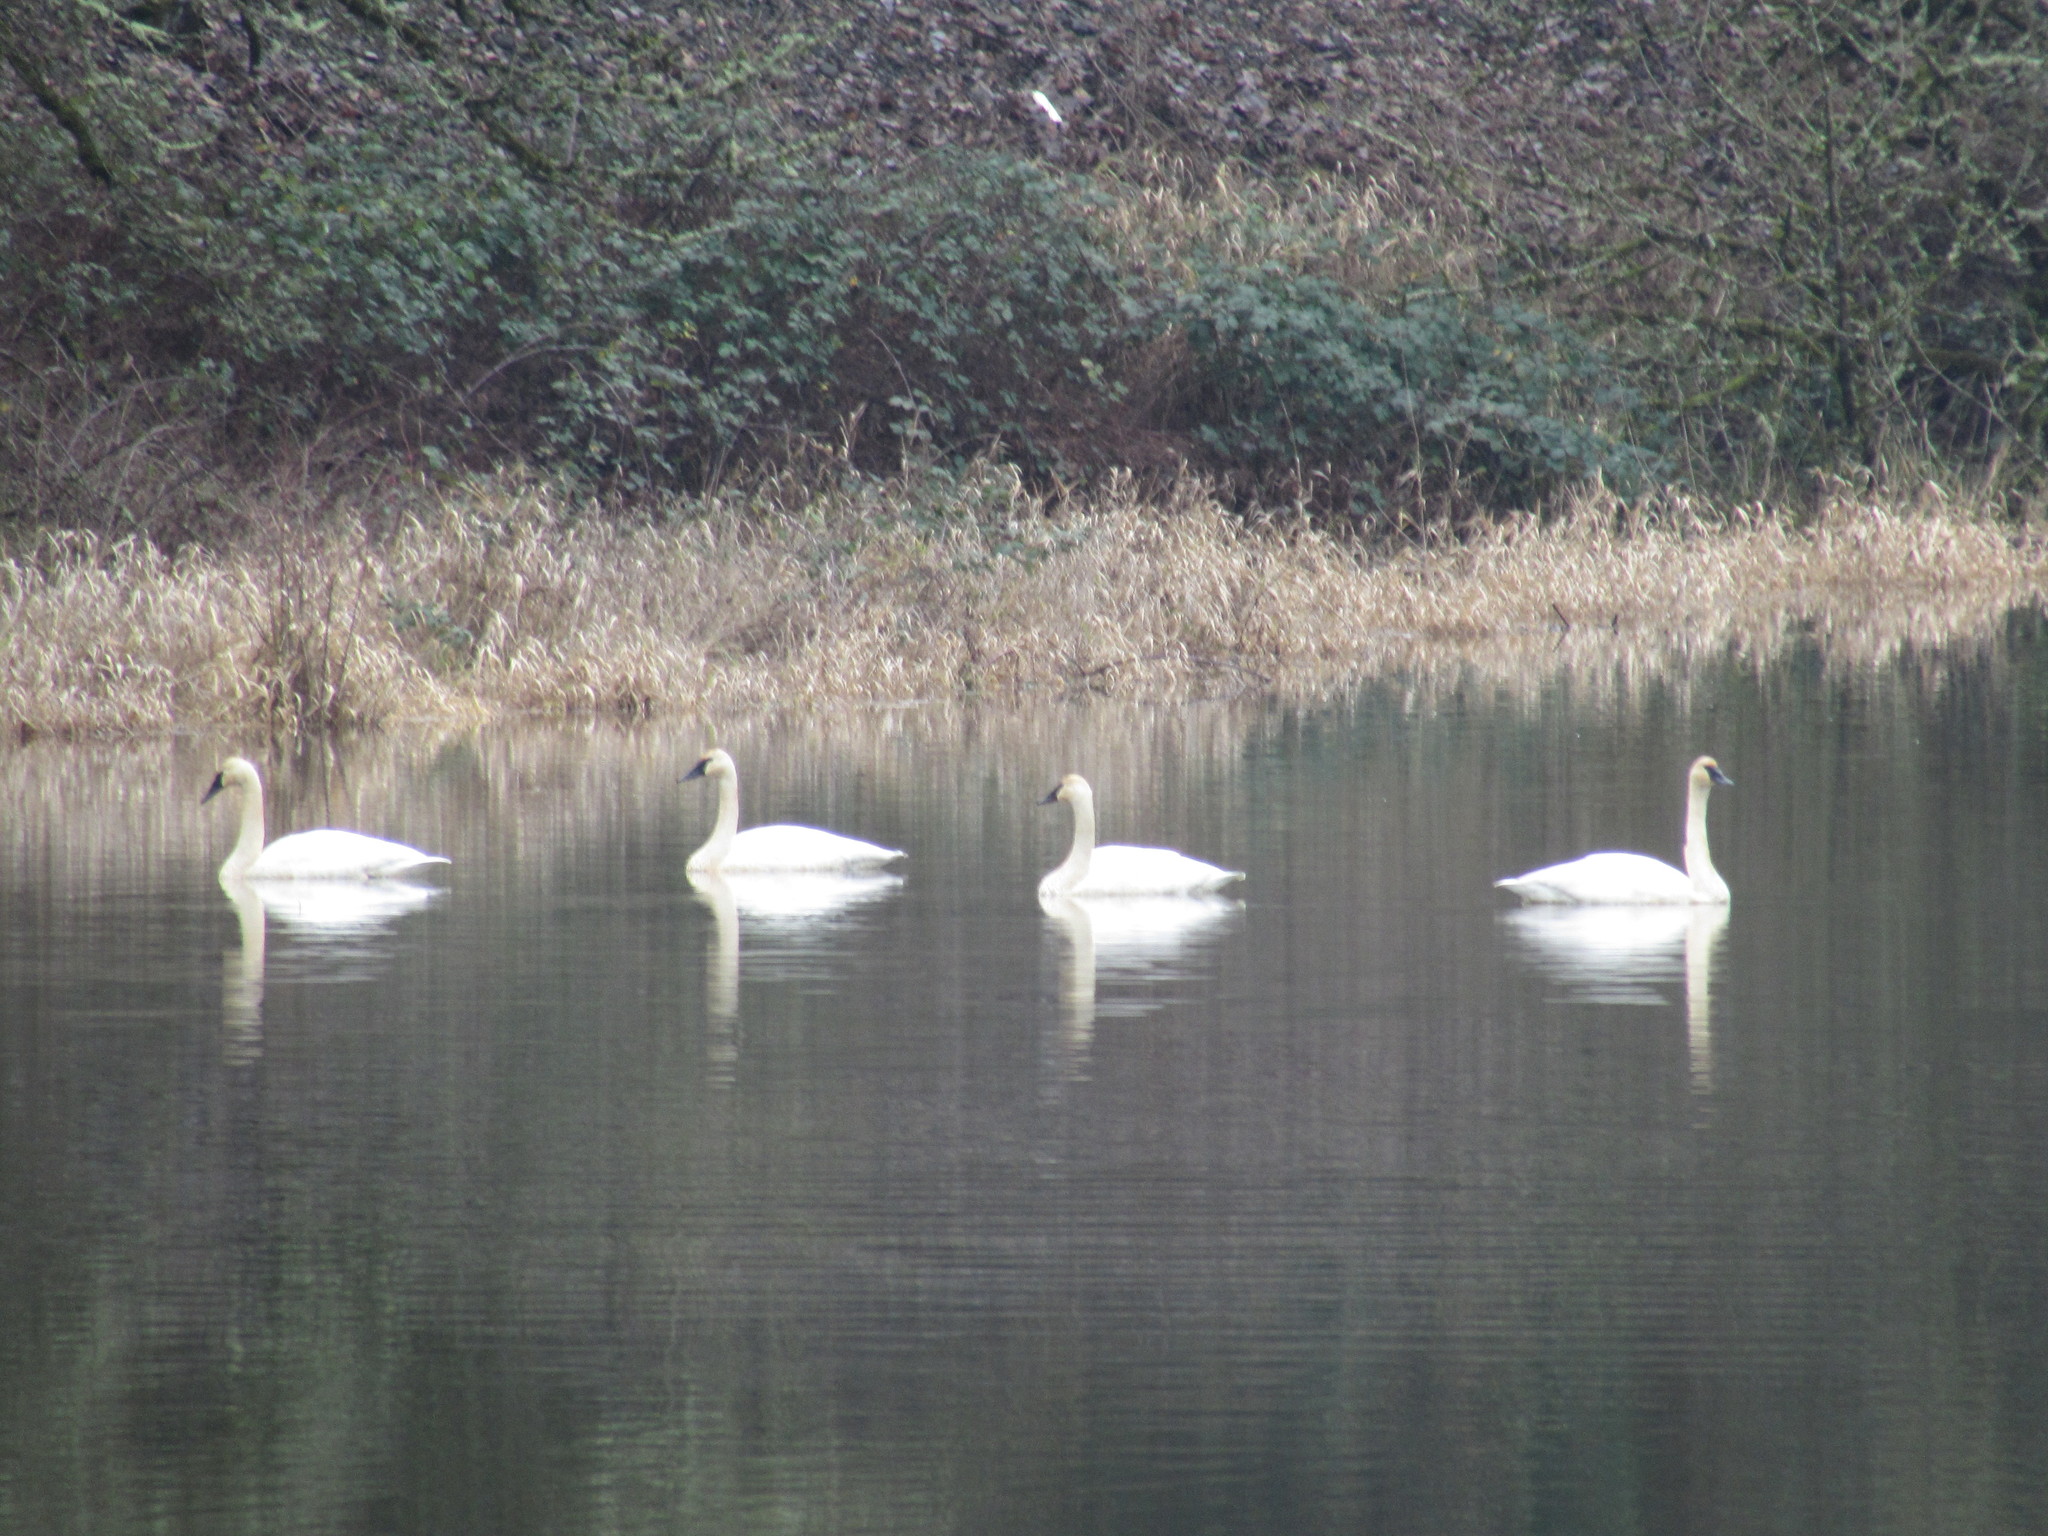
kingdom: Animalia
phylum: Chordata
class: Aves
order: Anseriformes
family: Anatidae
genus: Cygnus
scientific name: Cygnus buccinator
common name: Trumpeter swan
